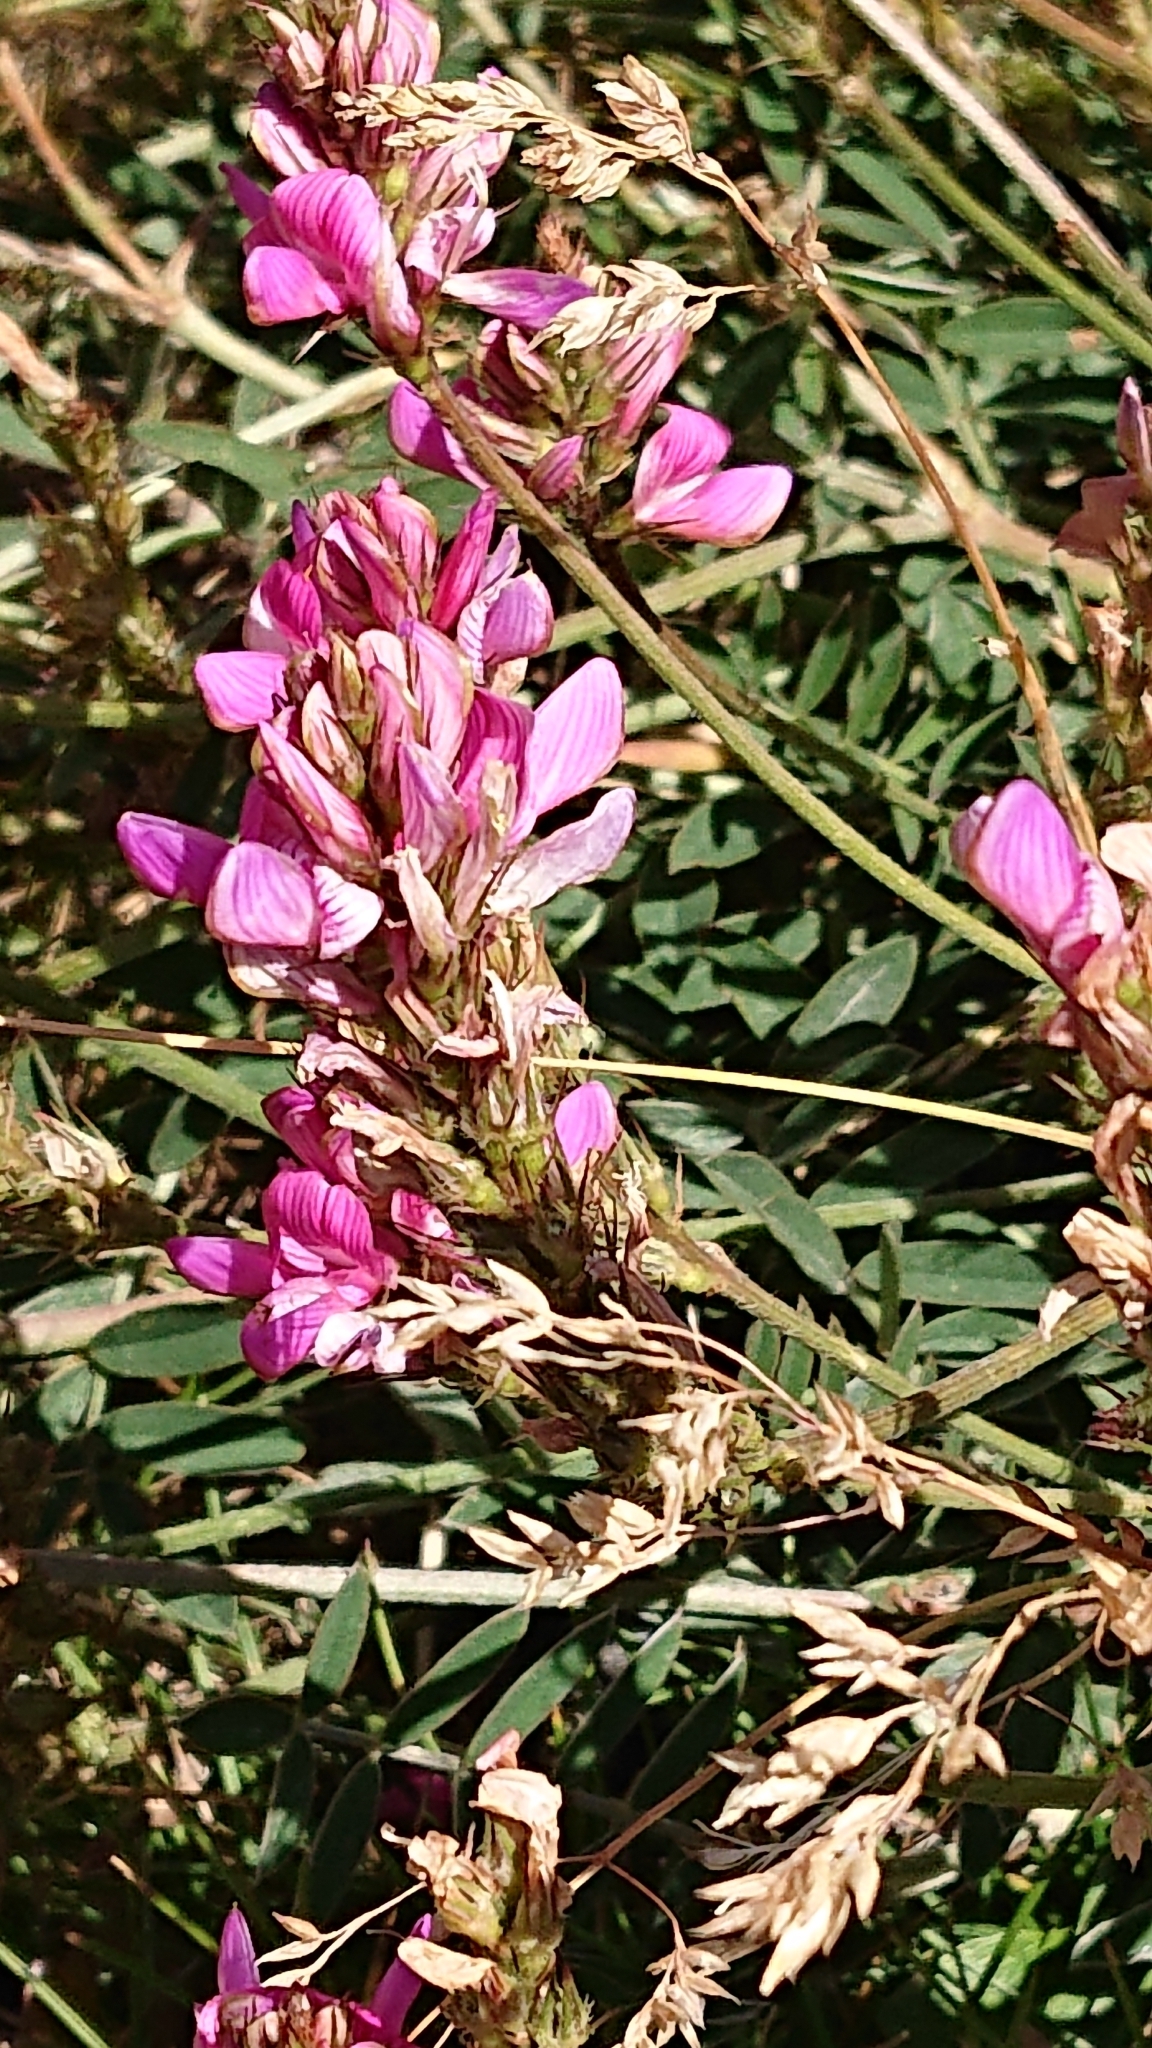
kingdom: Plantae
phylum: Tracheophyta
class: Magnoliopsida
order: Fabales
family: Fabaceae
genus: Onobrychis
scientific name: Onobrychis montana
